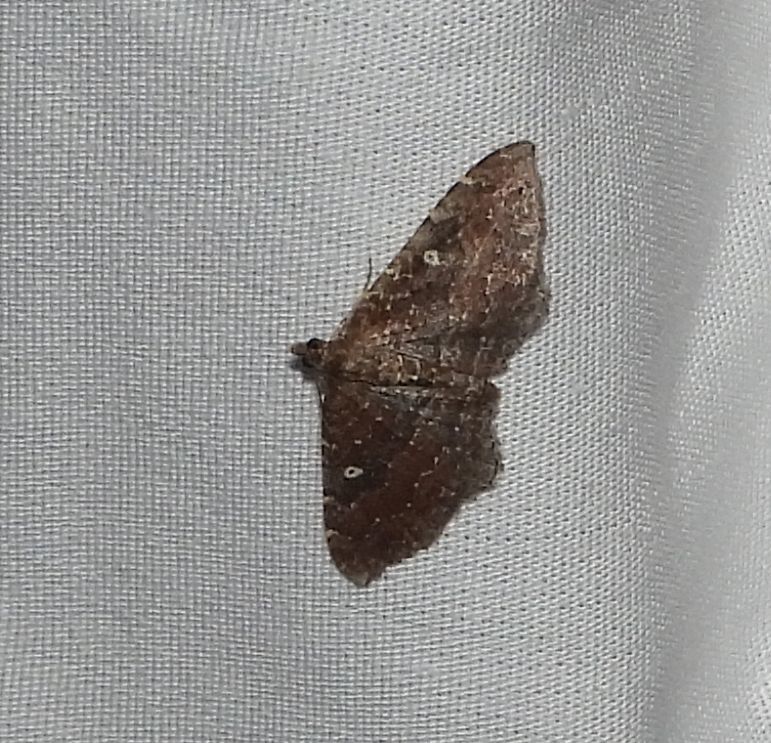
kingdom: Animalia
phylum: Arthropoda
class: Insecta
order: Lepidoptera
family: Geometridae
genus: Orthonama
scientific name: Orthonama obstipata
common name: The gem
